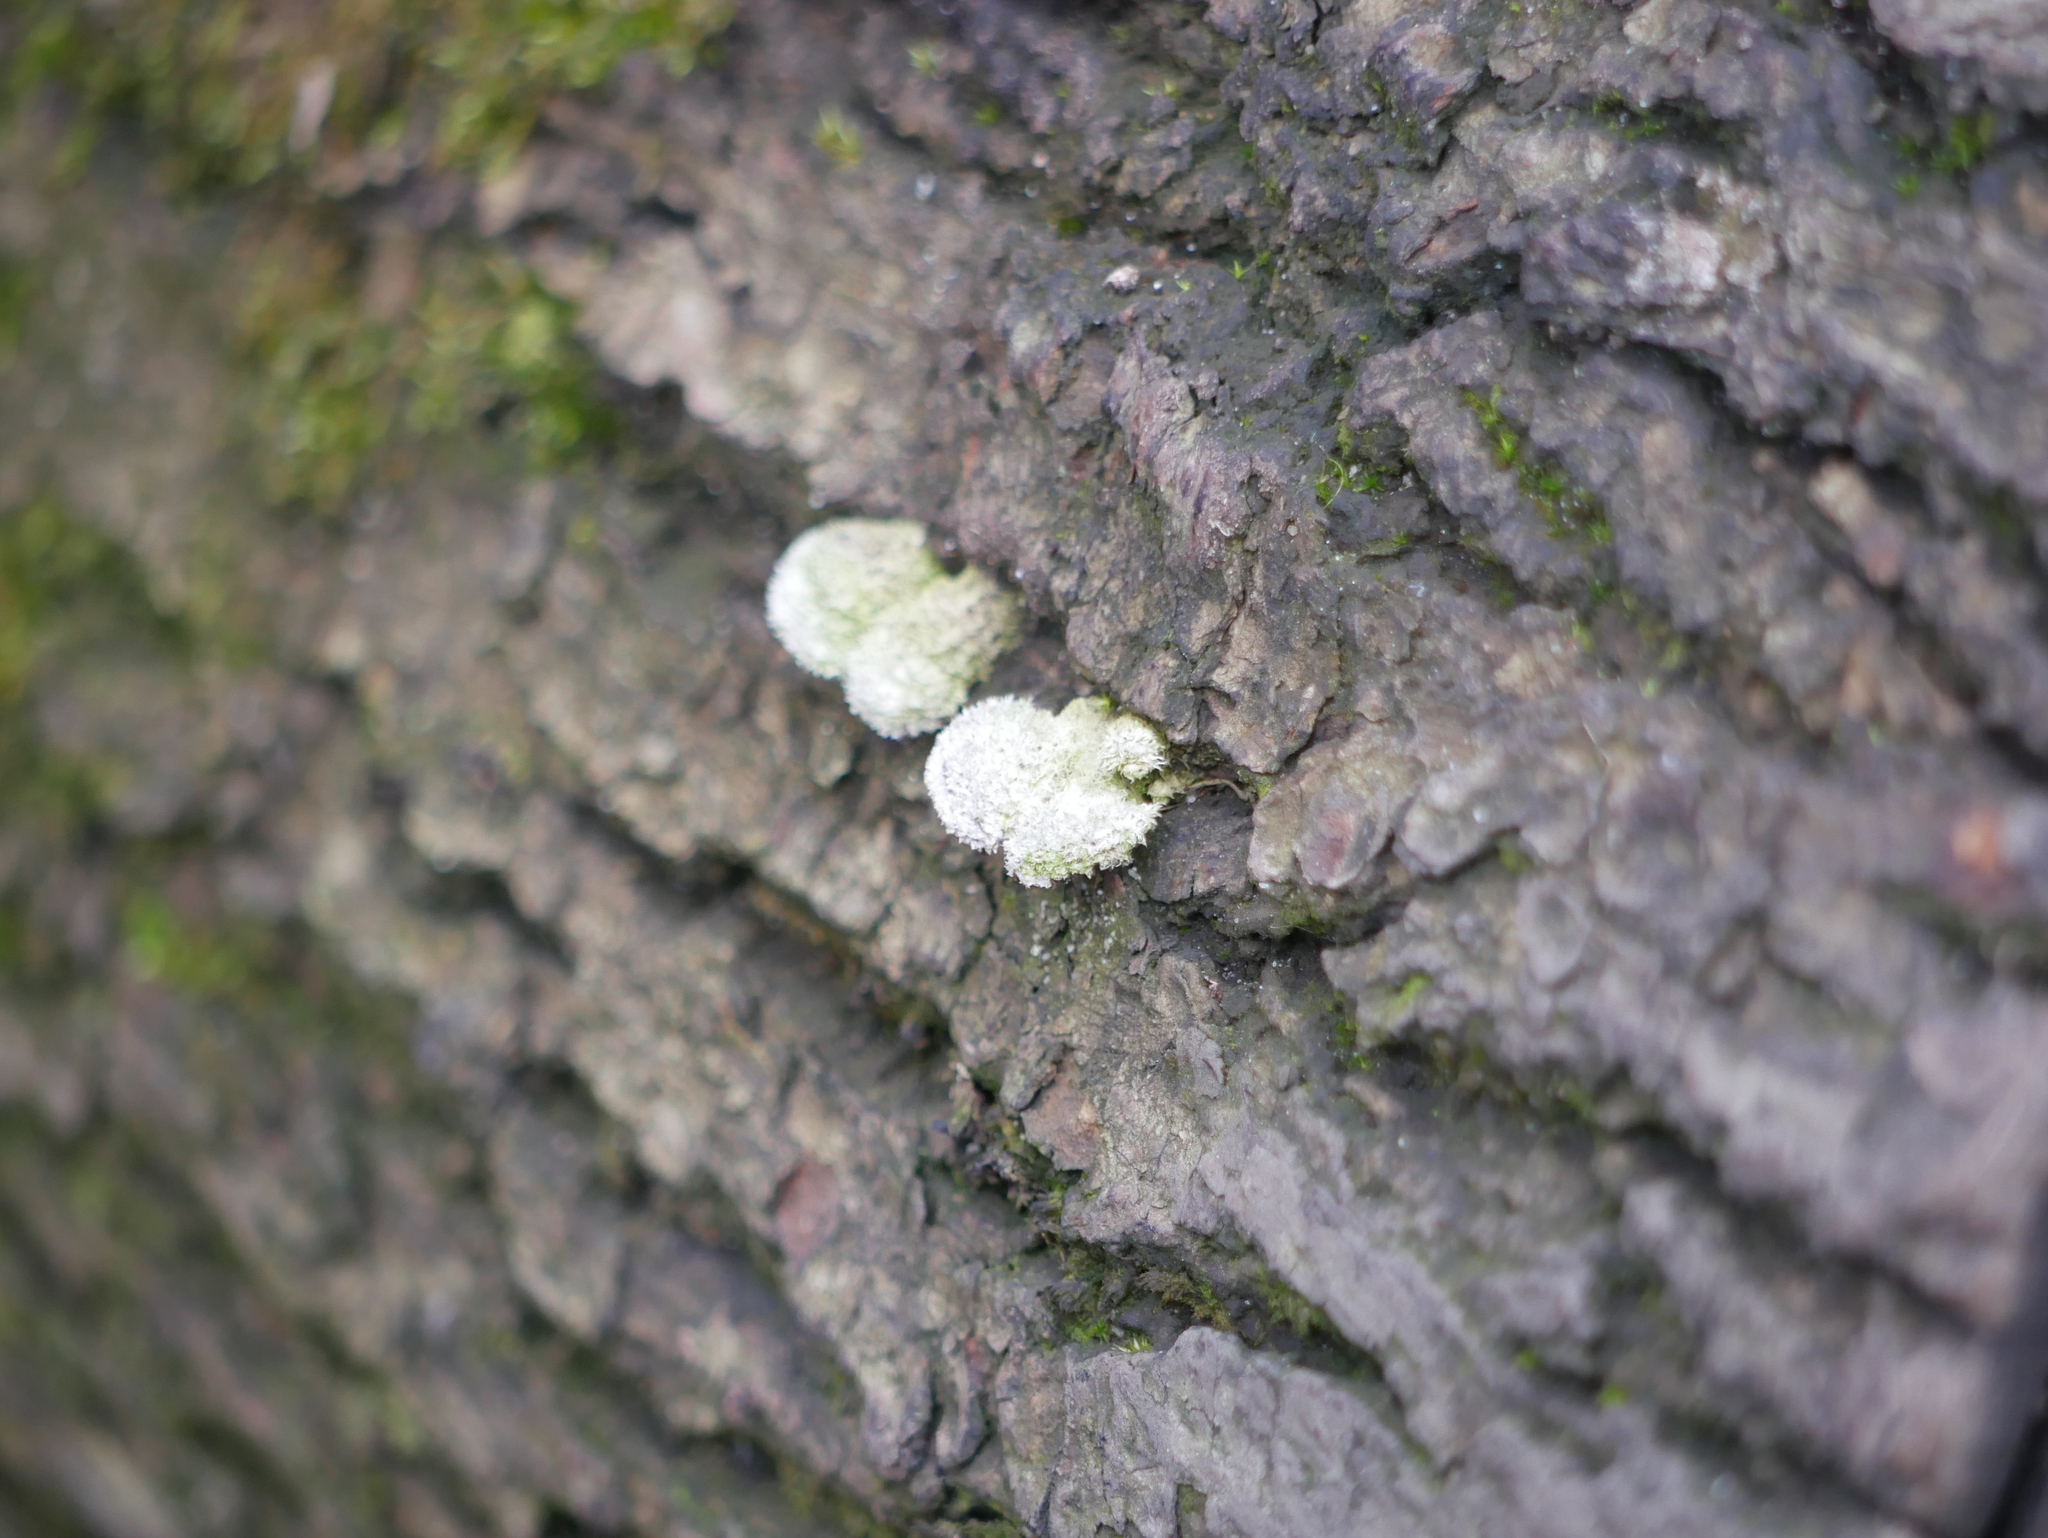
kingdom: Fungi
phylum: Basidiomycota
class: Agaricomycetes
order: Agaricales
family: Schizophyllaceae
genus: Schizophyllum
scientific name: Schizophyllum commune
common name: Common porecrust
